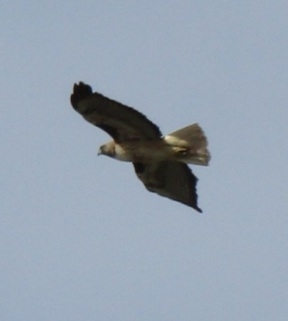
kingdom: Animalia
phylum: Chordata
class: Aves
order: Accipitriformes
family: Accipitridae
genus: Buteo
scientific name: Buteo jamaicensis
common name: Red-tailed hawk
